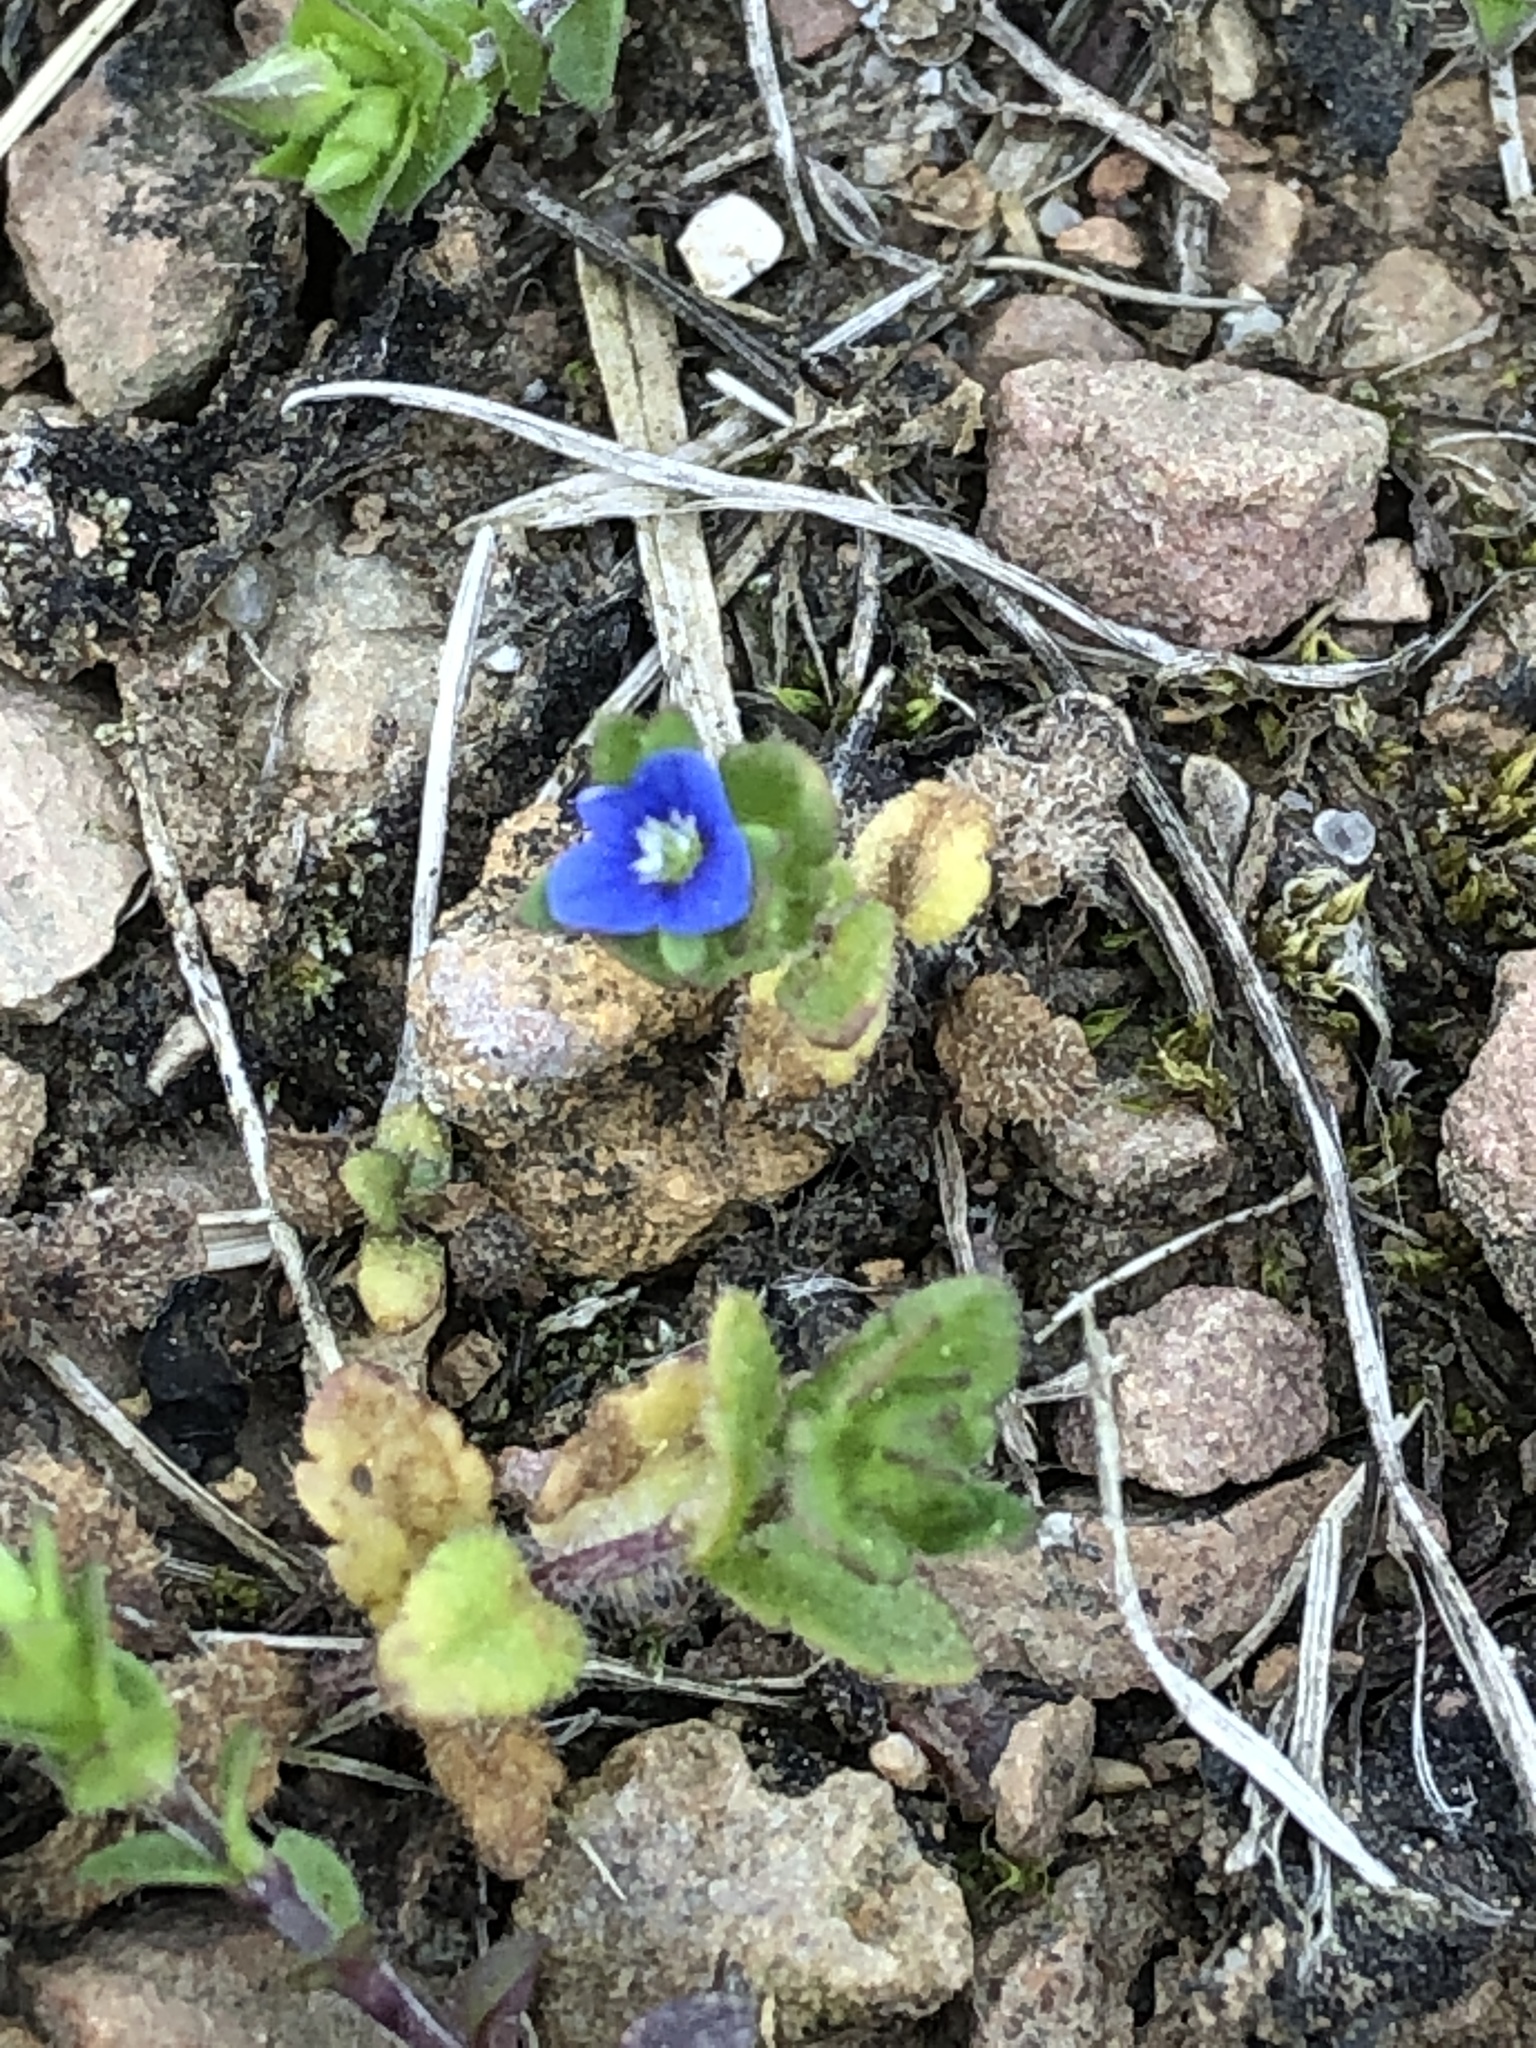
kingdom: Plantae
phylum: Tracheophyta
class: Magnoliopsida
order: Lamiales
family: Plantaginaceae
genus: Veronica
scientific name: Veronica arvensis
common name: Corn speedwell
